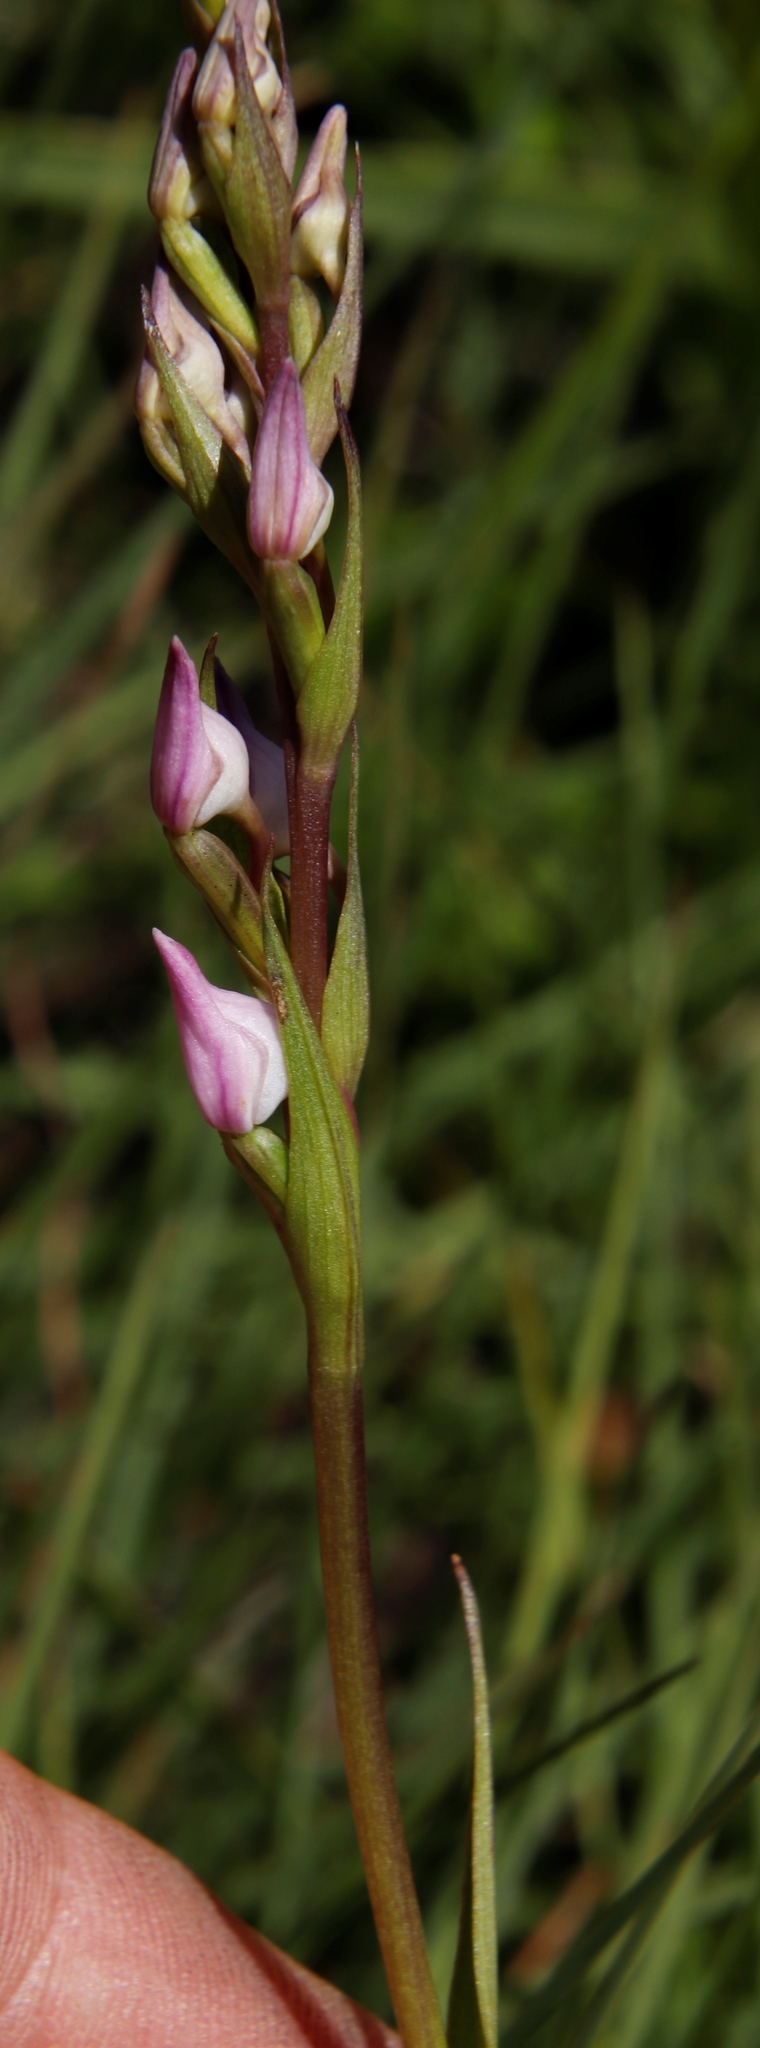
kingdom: Plantae
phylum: Tracheophyta
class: Liliopsida
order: Asparagales
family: Orchidaceae
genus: Brownleea
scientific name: Brownleea recurvata
